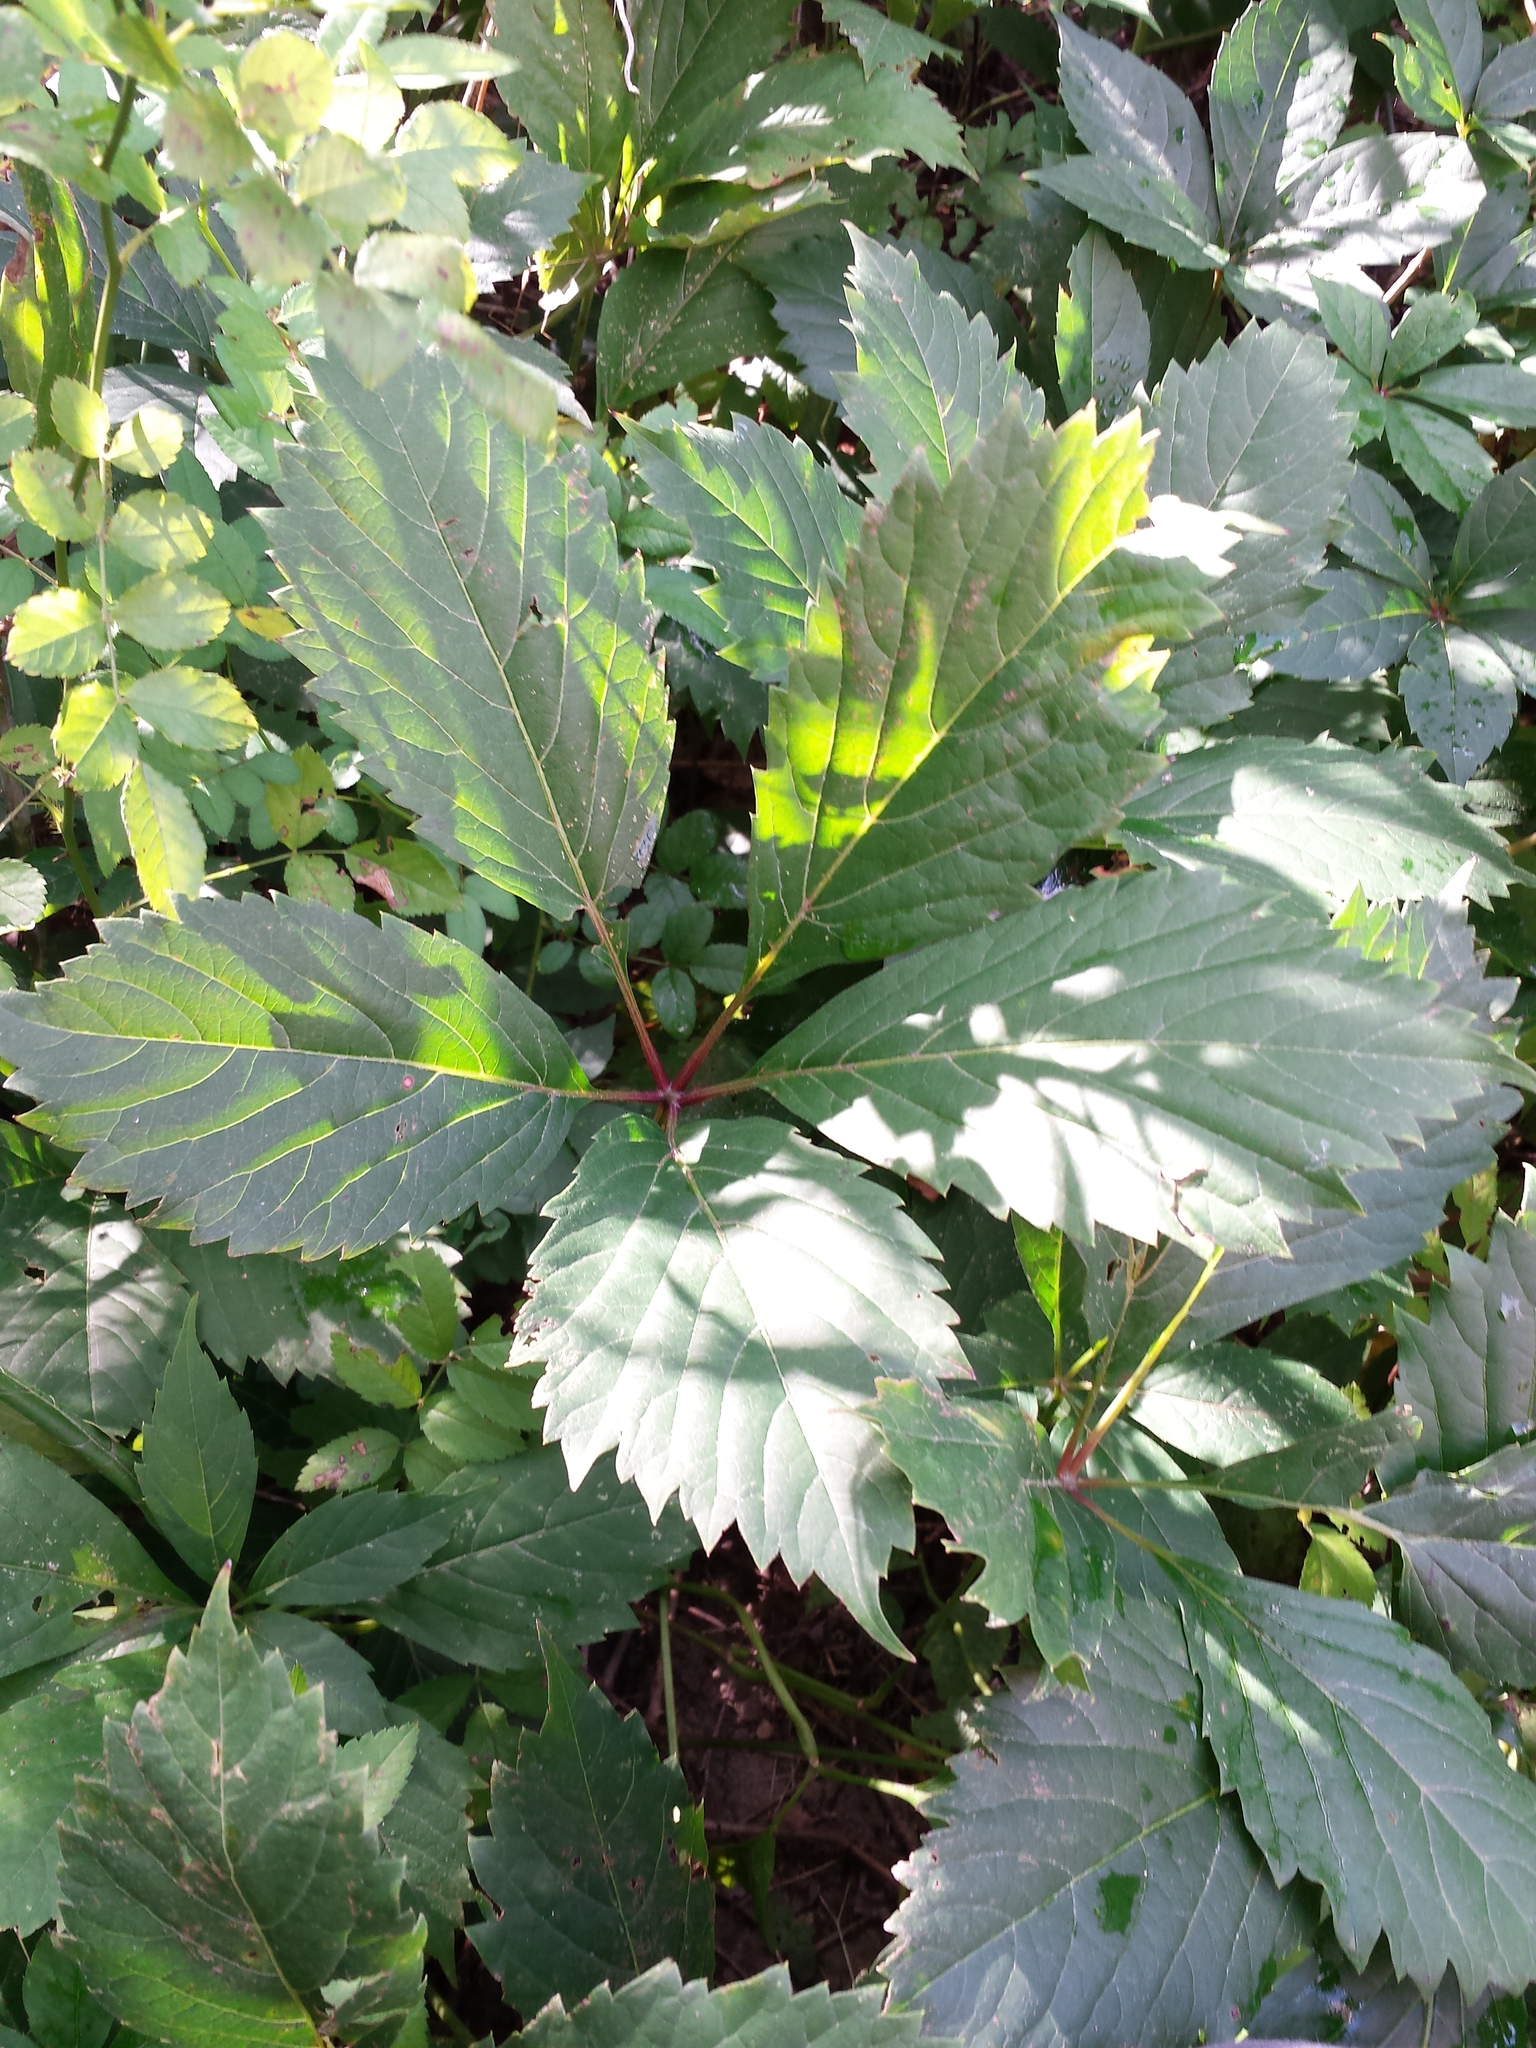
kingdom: Plantae
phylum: Tracheophyta
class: Magnoliopsida
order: Vitales
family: Vitaceae
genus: Parthenocissus
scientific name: Parthenocissus inserta
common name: False virginia-creeper
